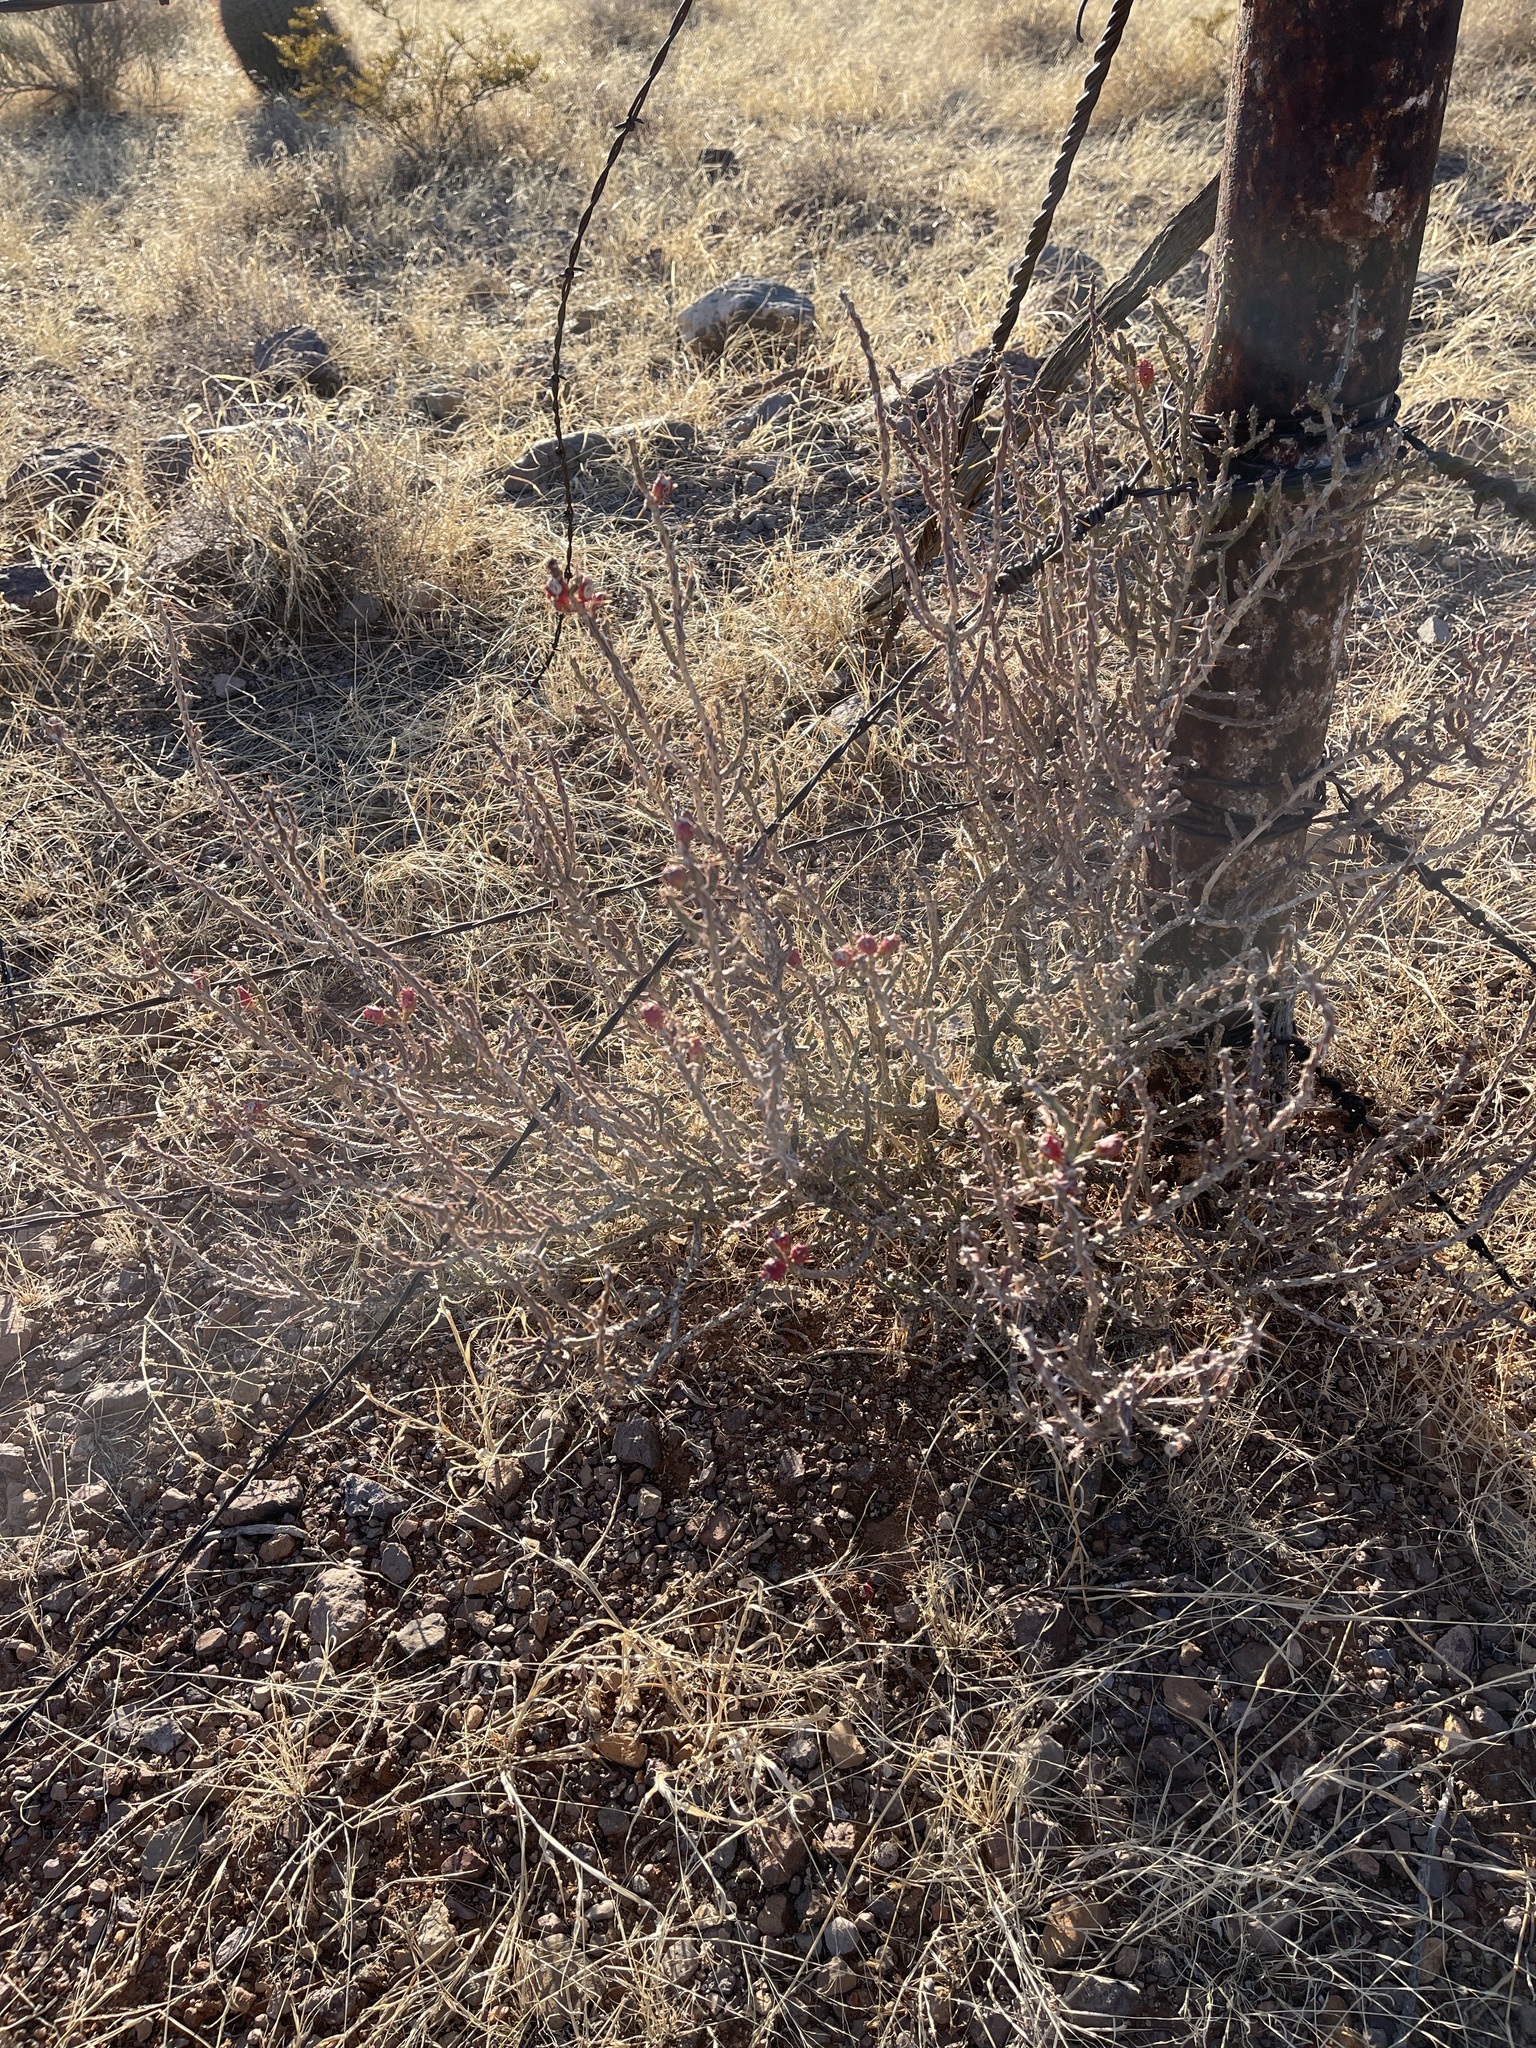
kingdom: Plantae
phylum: Tracheophyta
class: Magnoliopsida
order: Caryophyllales
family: Cactaceae
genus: Cylindropuntia
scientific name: Cylindropuntia leptocaulis
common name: Christmas cactus
